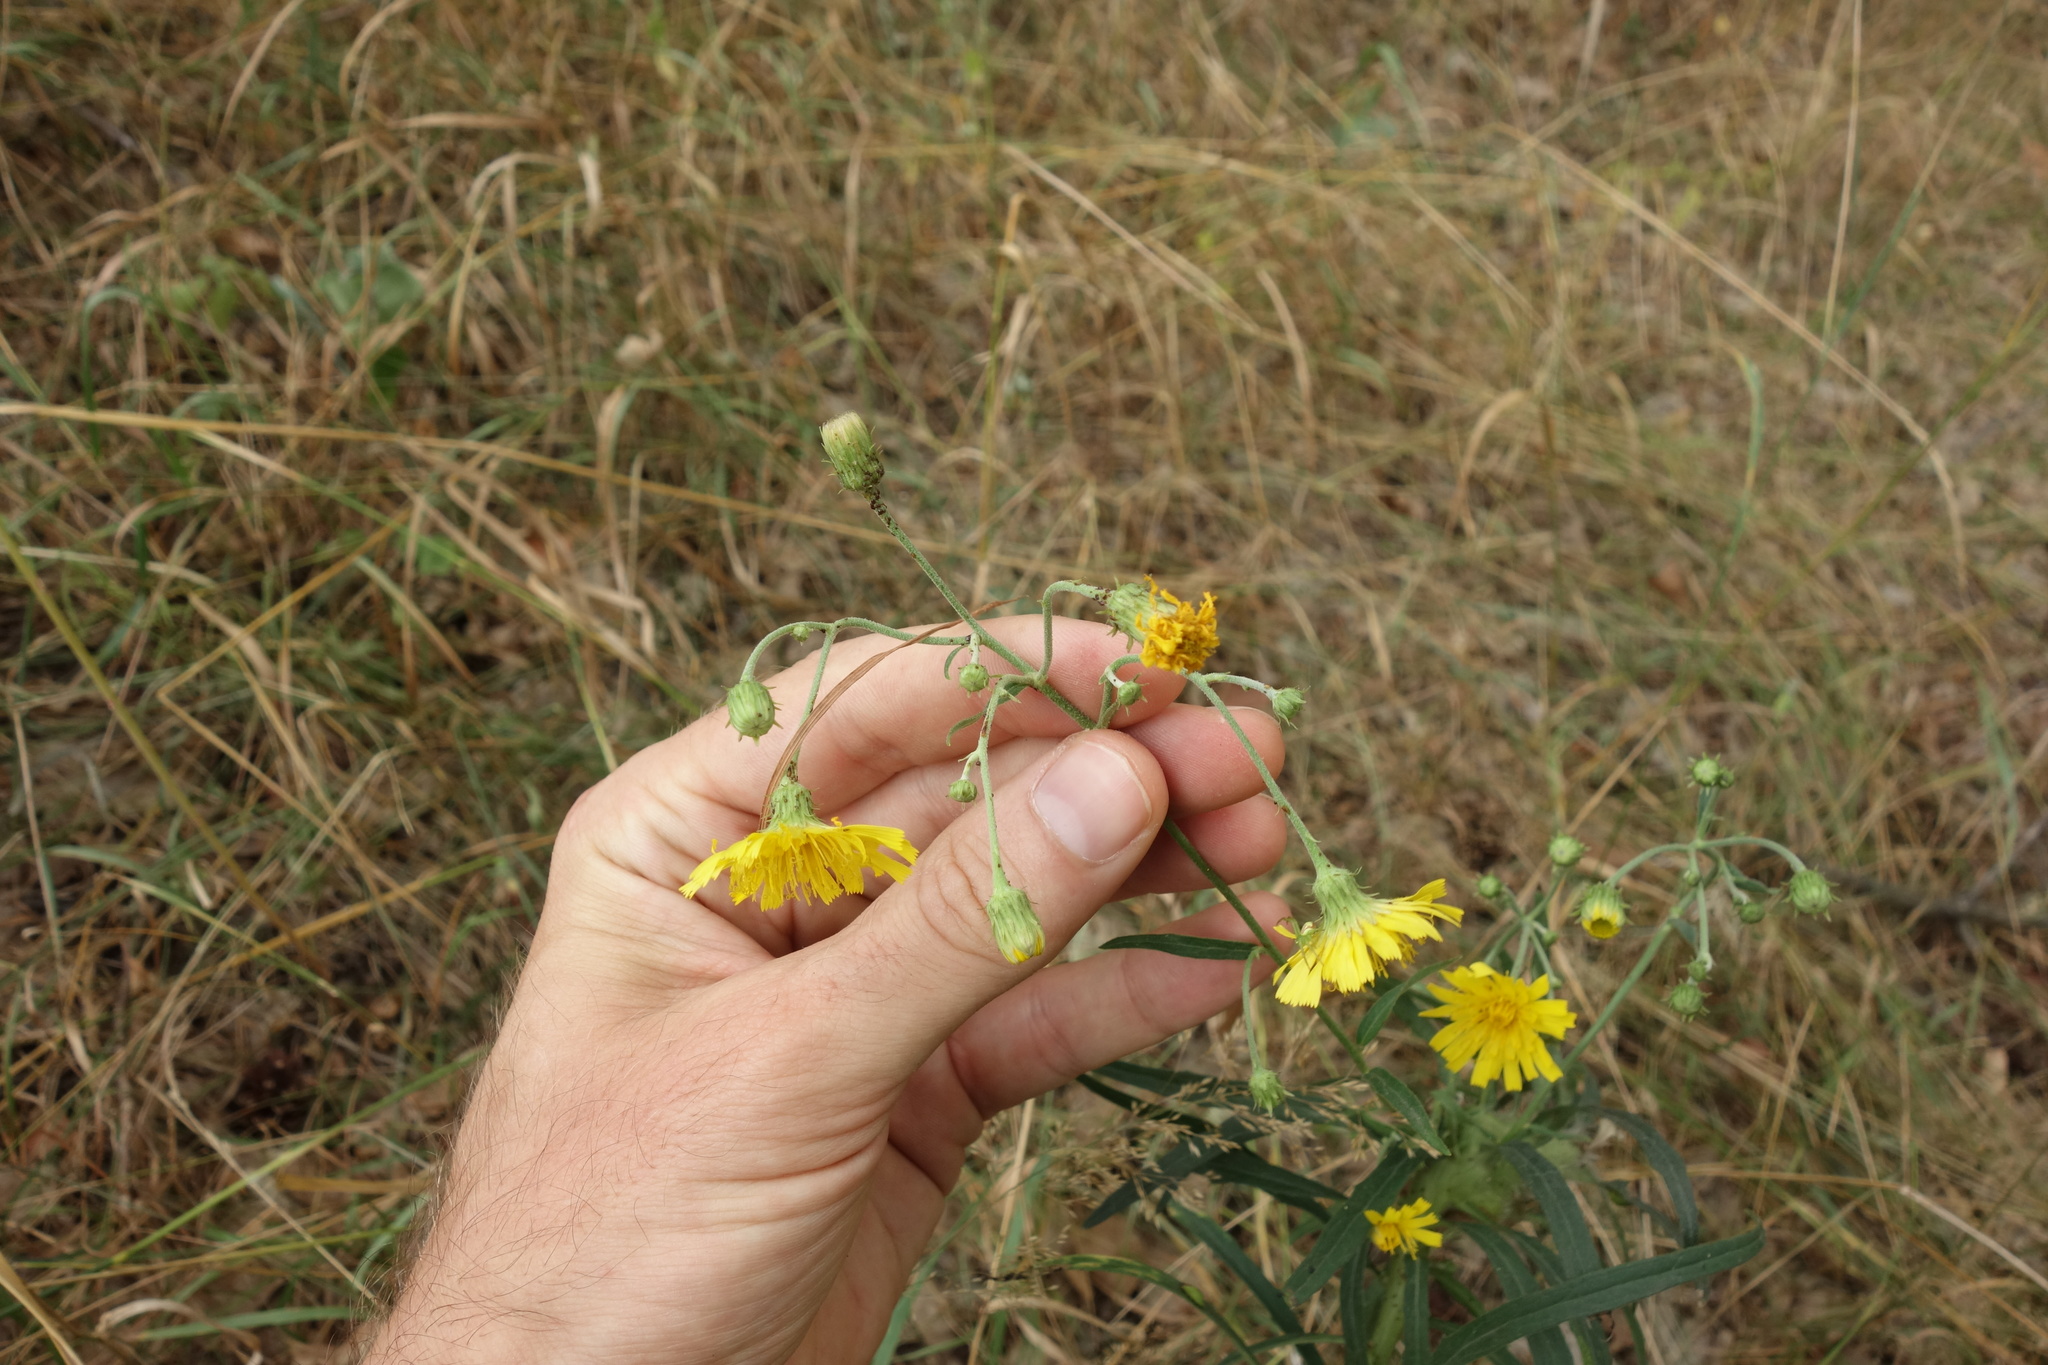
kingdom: Plantae
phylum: Tracheophyta
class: Magnoliopsida
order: Asterales
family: Asteraceae
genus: Hieracium
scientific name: Hieracium umbellatum
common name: Northern hawkweed
